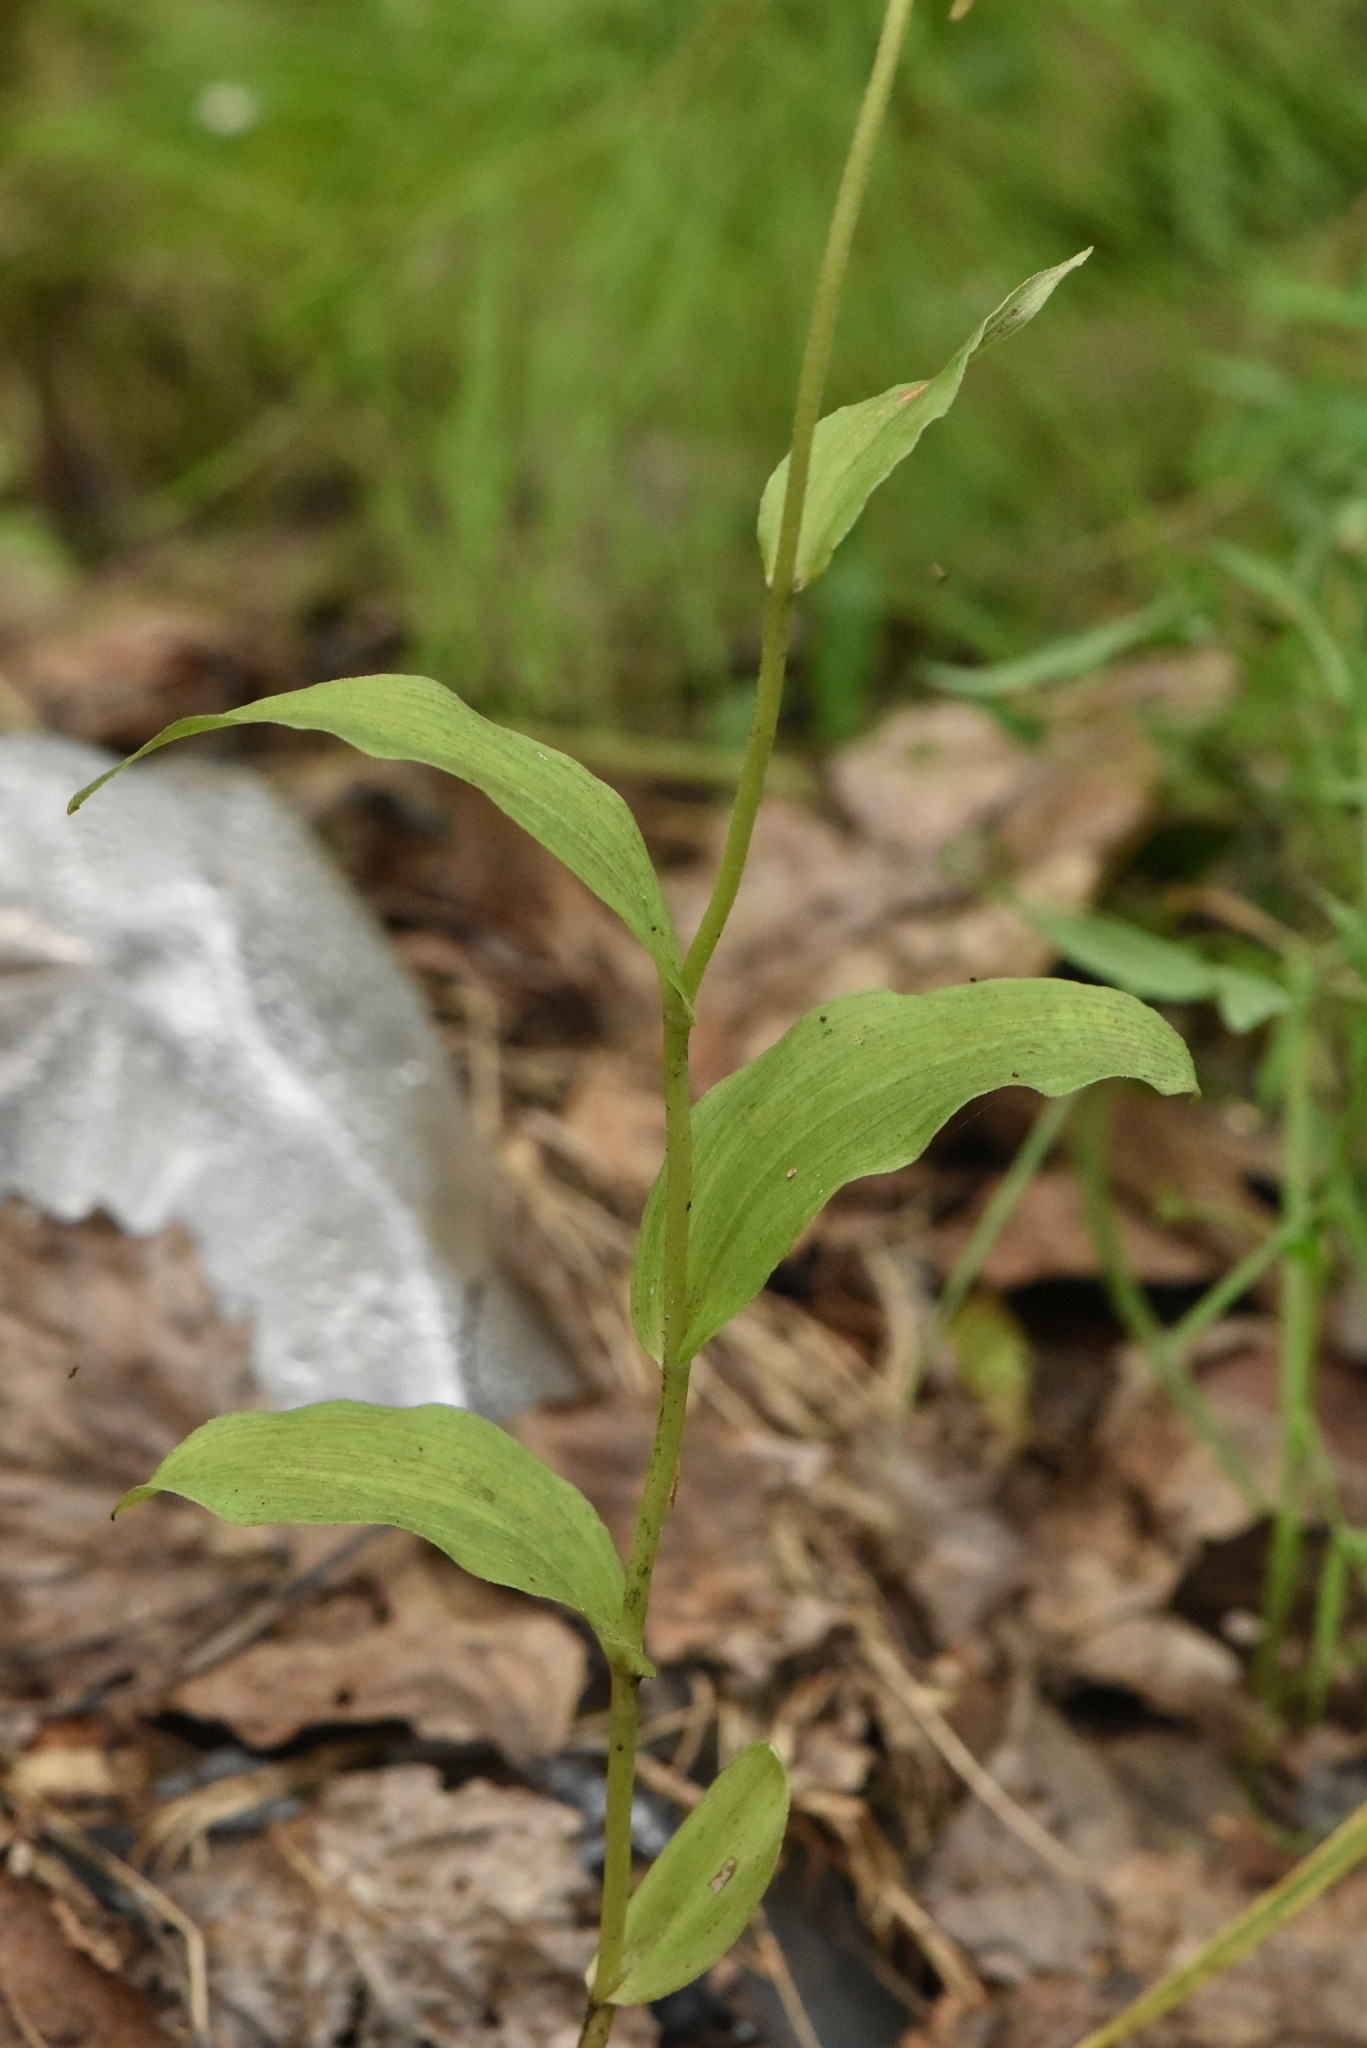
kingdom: Plantae
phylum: Tracheophyta
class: Liliopsida
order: Asparagales
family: Orchidaceae
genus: Epipactis
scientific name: Epipactis helleborine
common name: Broad-leaved helleborine
